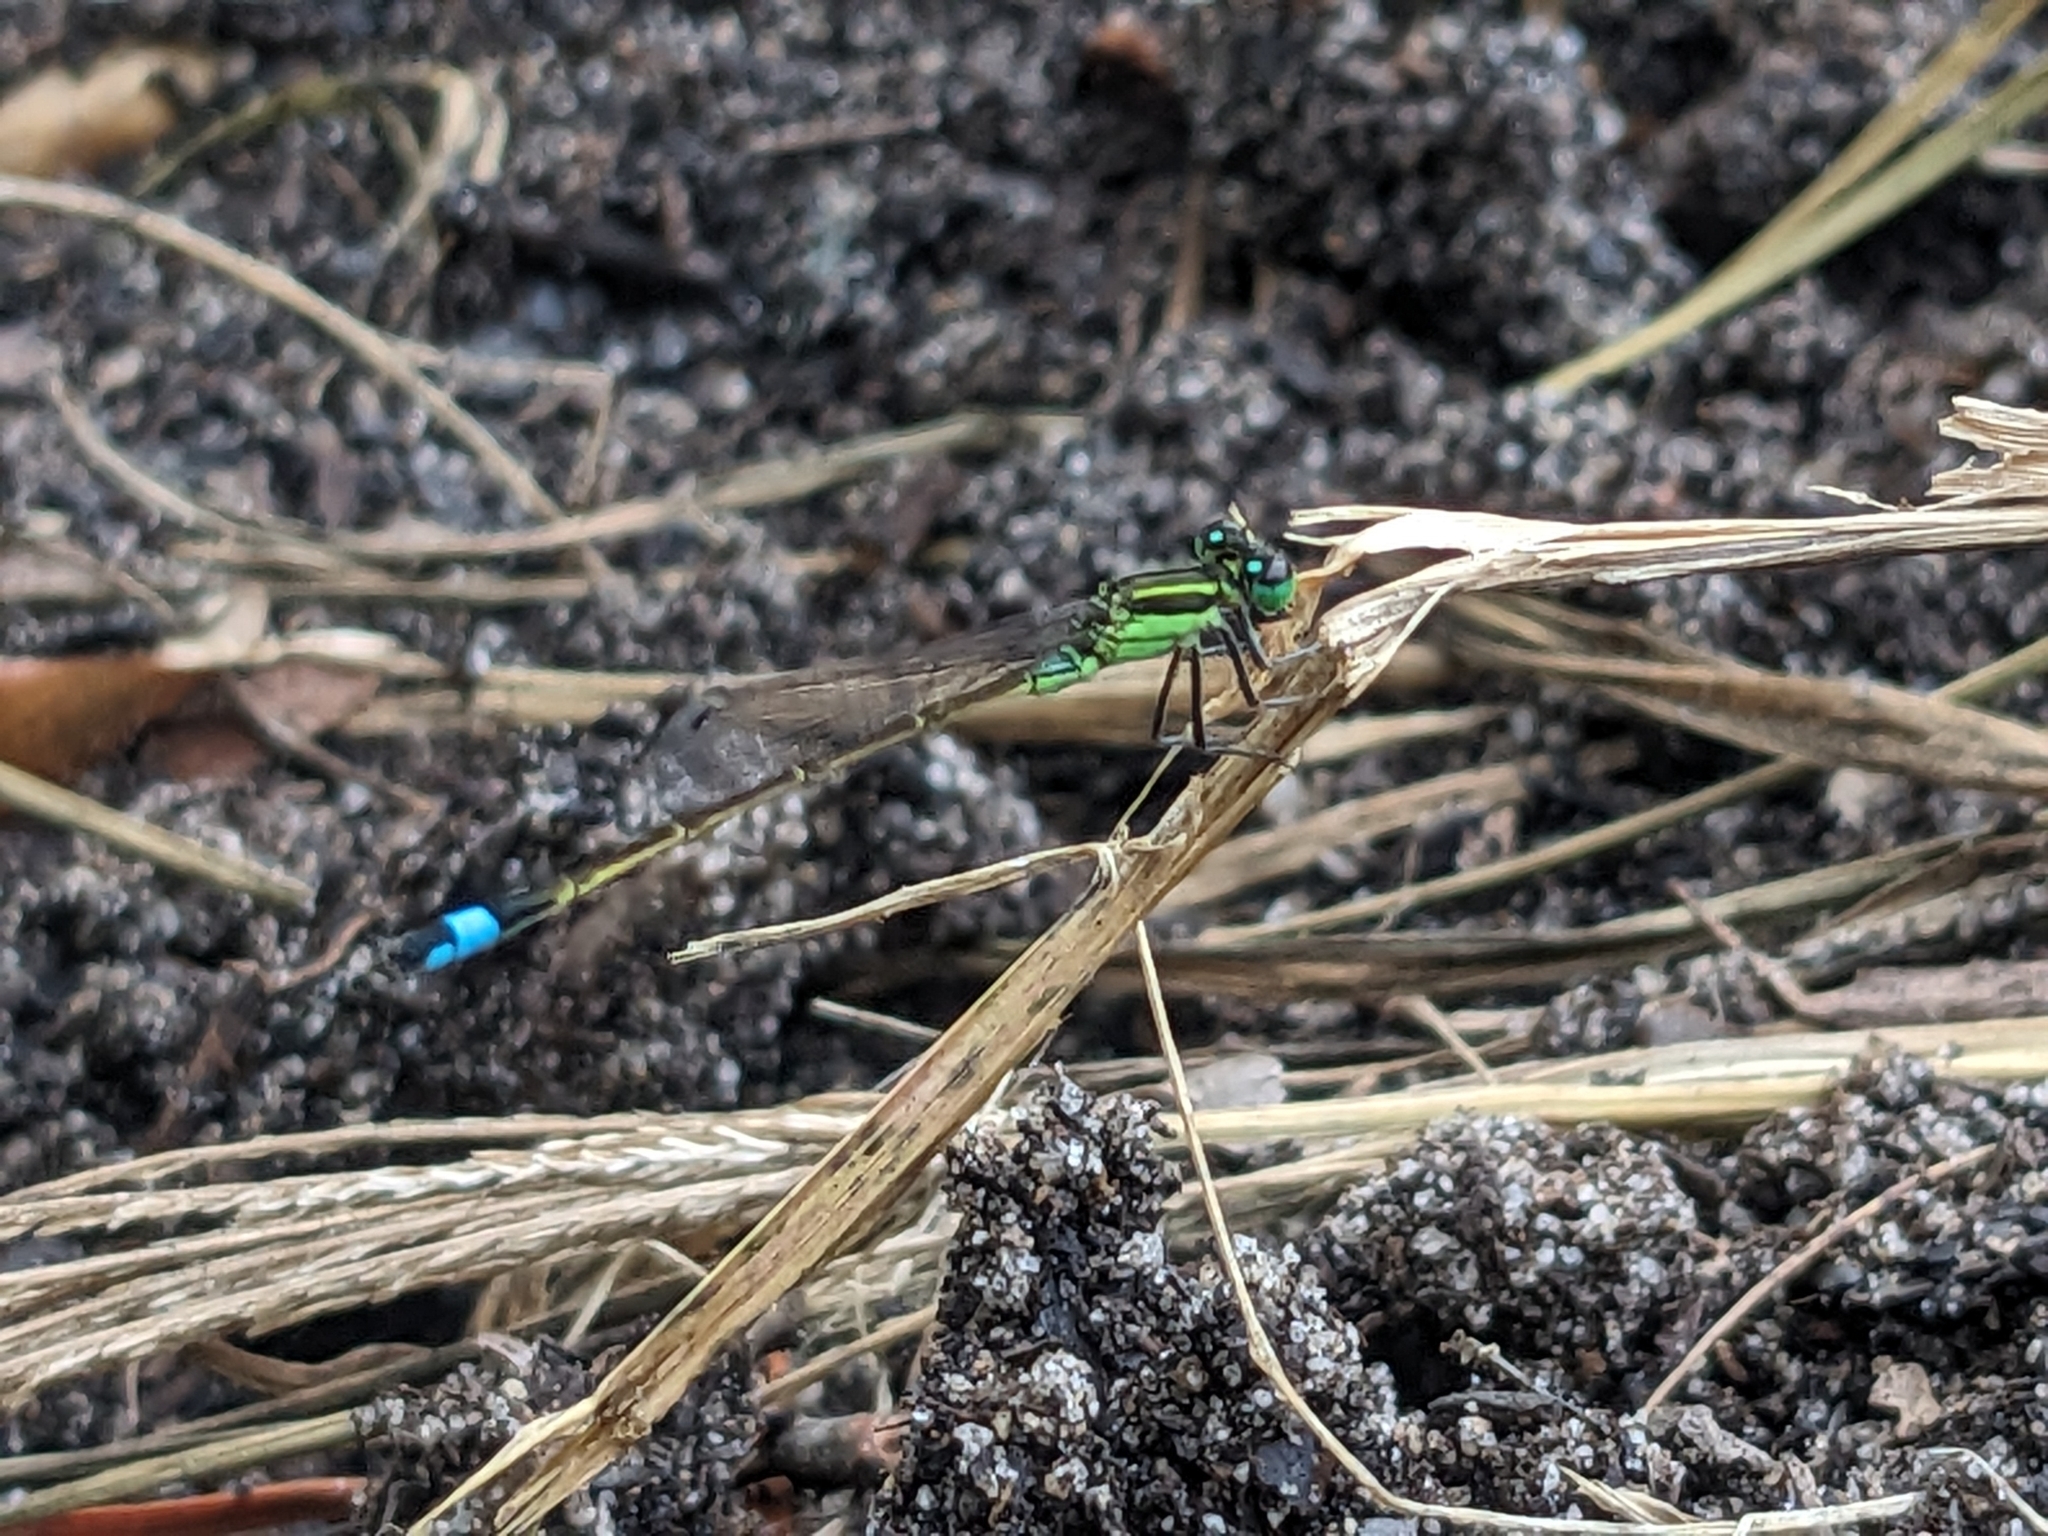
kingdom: Animalia
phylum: Arthropoda
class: Insecta
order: Odonata
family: Coenagrionidae
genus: Ischnura
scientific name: Ischnura ramburii
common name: Rambur's forktail
